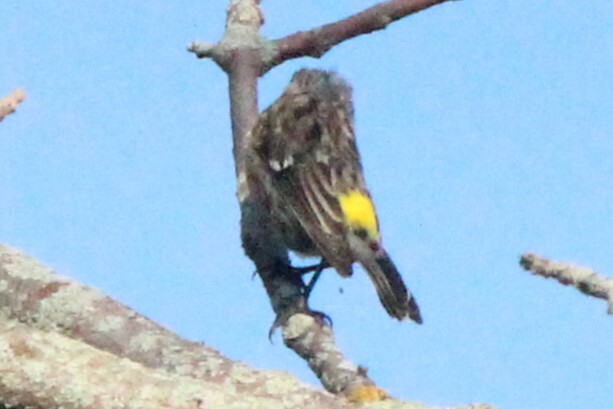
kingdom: Animalia
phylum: Chordata
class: Aves
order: Passeriformes
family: Parulidae
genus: Setophaga
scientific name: Setophaga coronata
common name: Myrtle warbler
